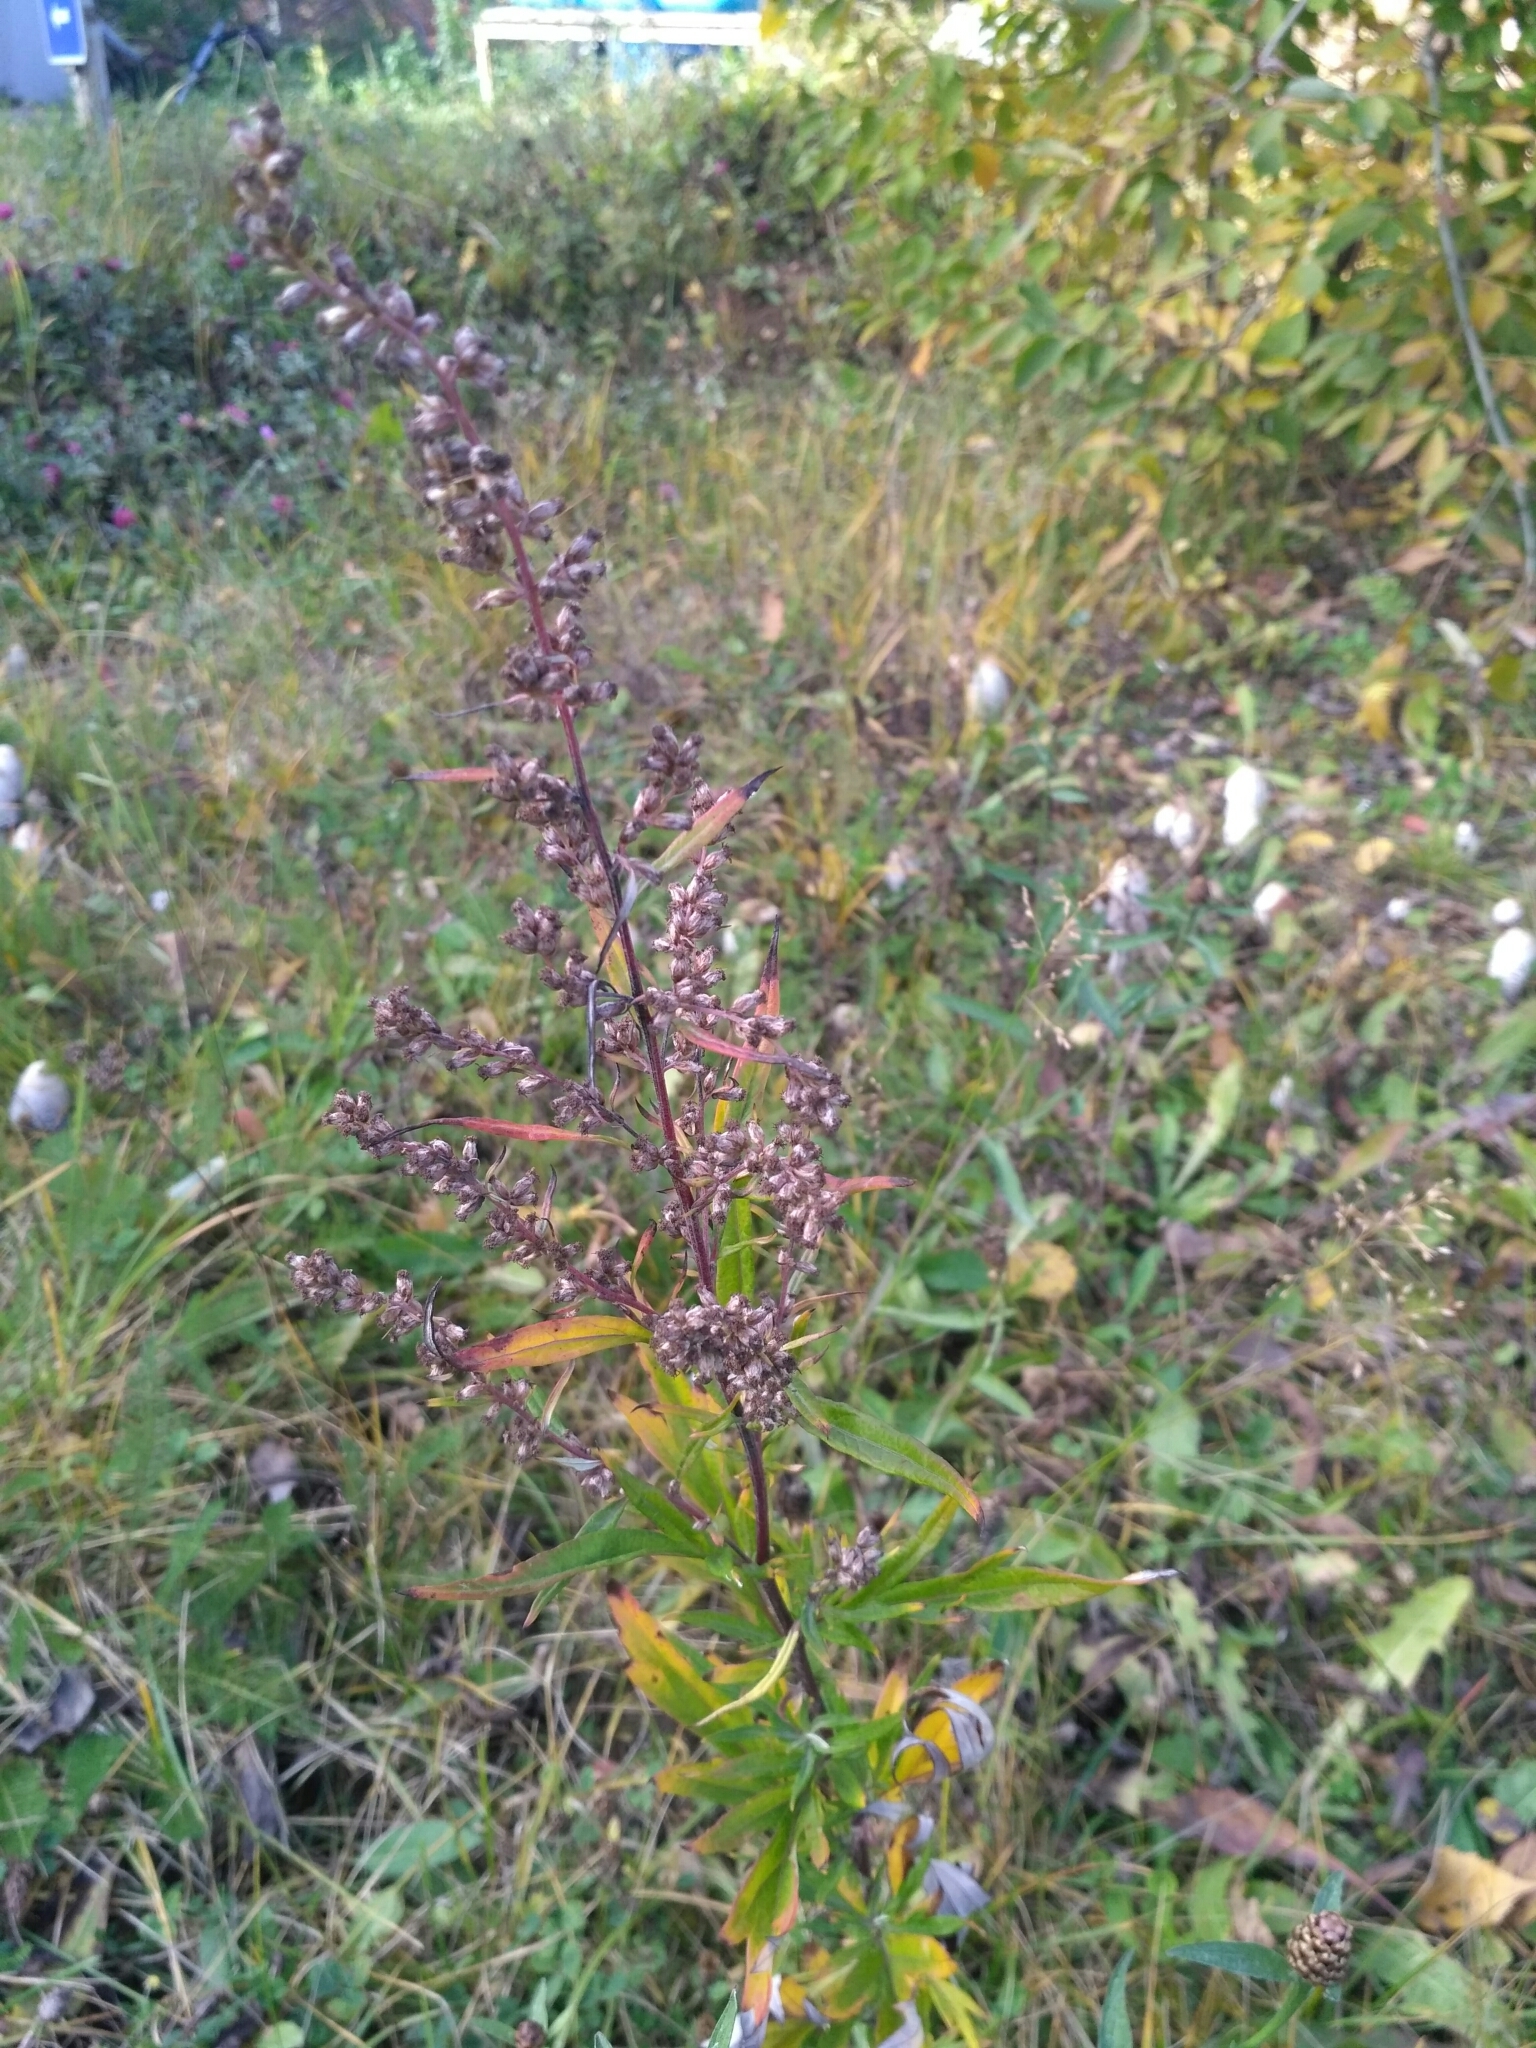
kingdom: Plantae
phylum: Tracheophyta
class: Magnoliopsida
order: Asterales
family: Asteraceae
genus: Artemisia
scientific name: Artemisia vulgaris
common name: Mugwort
